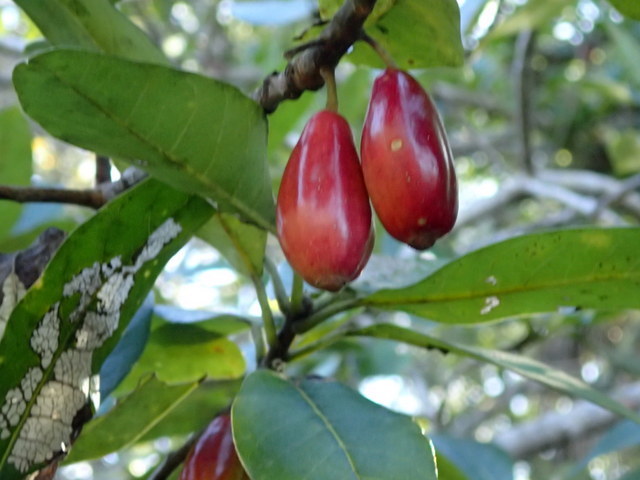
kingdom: Plantae
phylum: Tracheophyta
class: Magnoliopsida
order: Cornales
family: Nyssaceae
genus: Nyssa
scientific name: Nyssa ogeche
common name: Ogeechee tupelo
